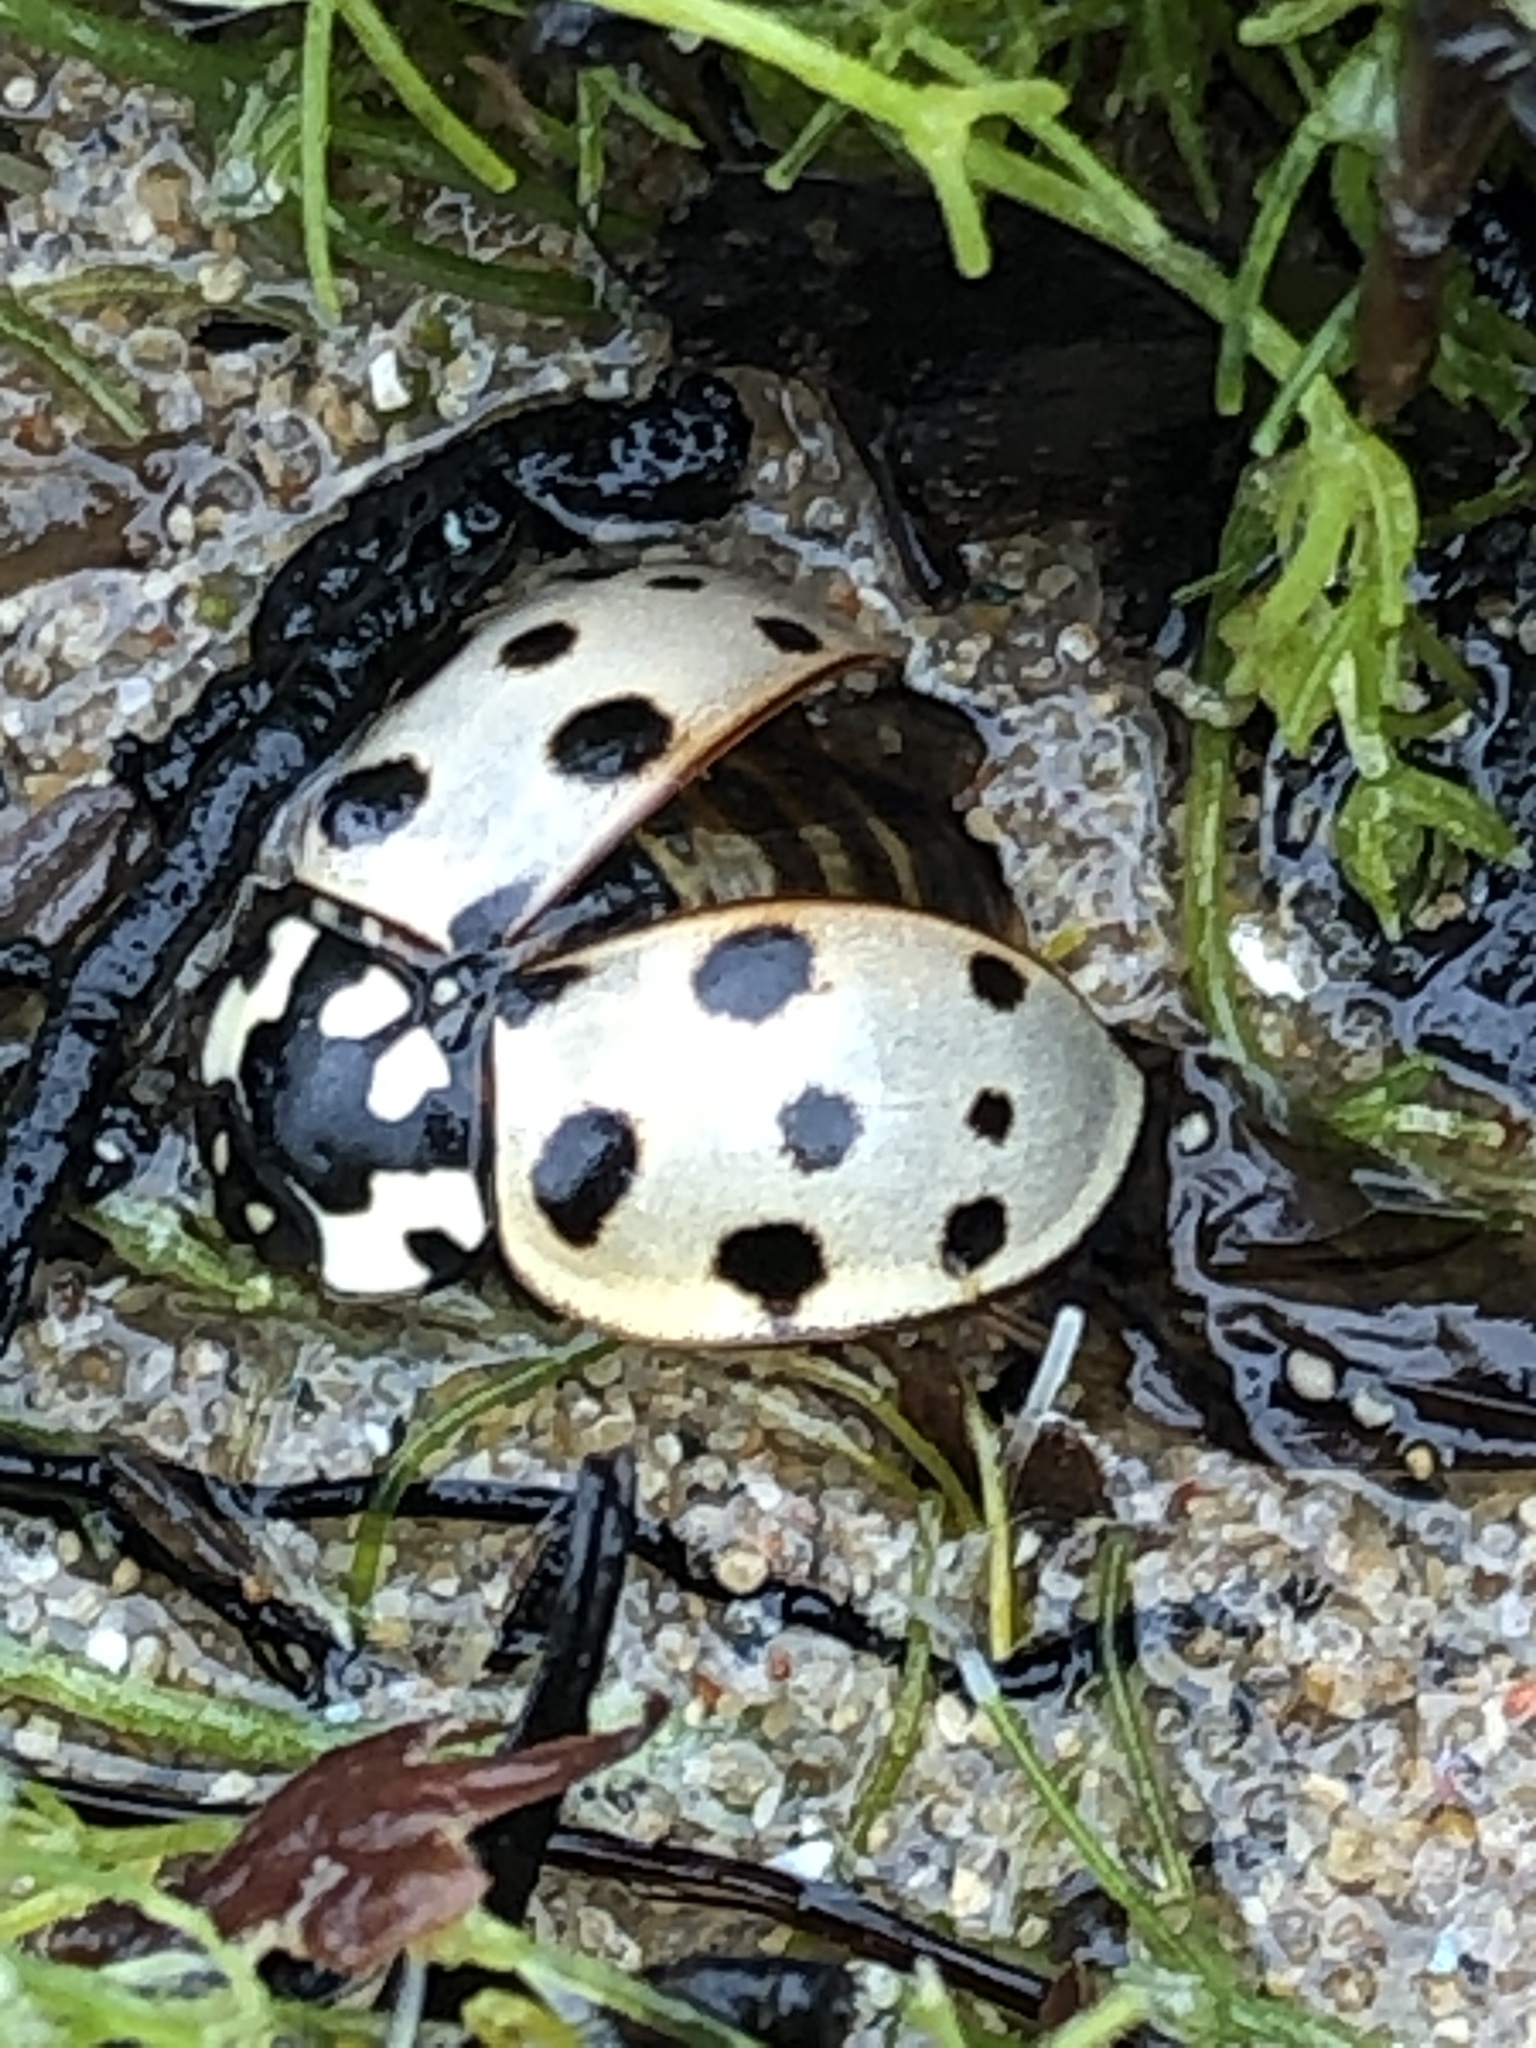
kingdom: Animalia
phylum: Arthropoda
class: Insecta
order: Coleoptera
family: Coccinellidae
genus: Anatis
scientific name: Anatis labiculata
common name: Fifteen-spotted lady beetle
